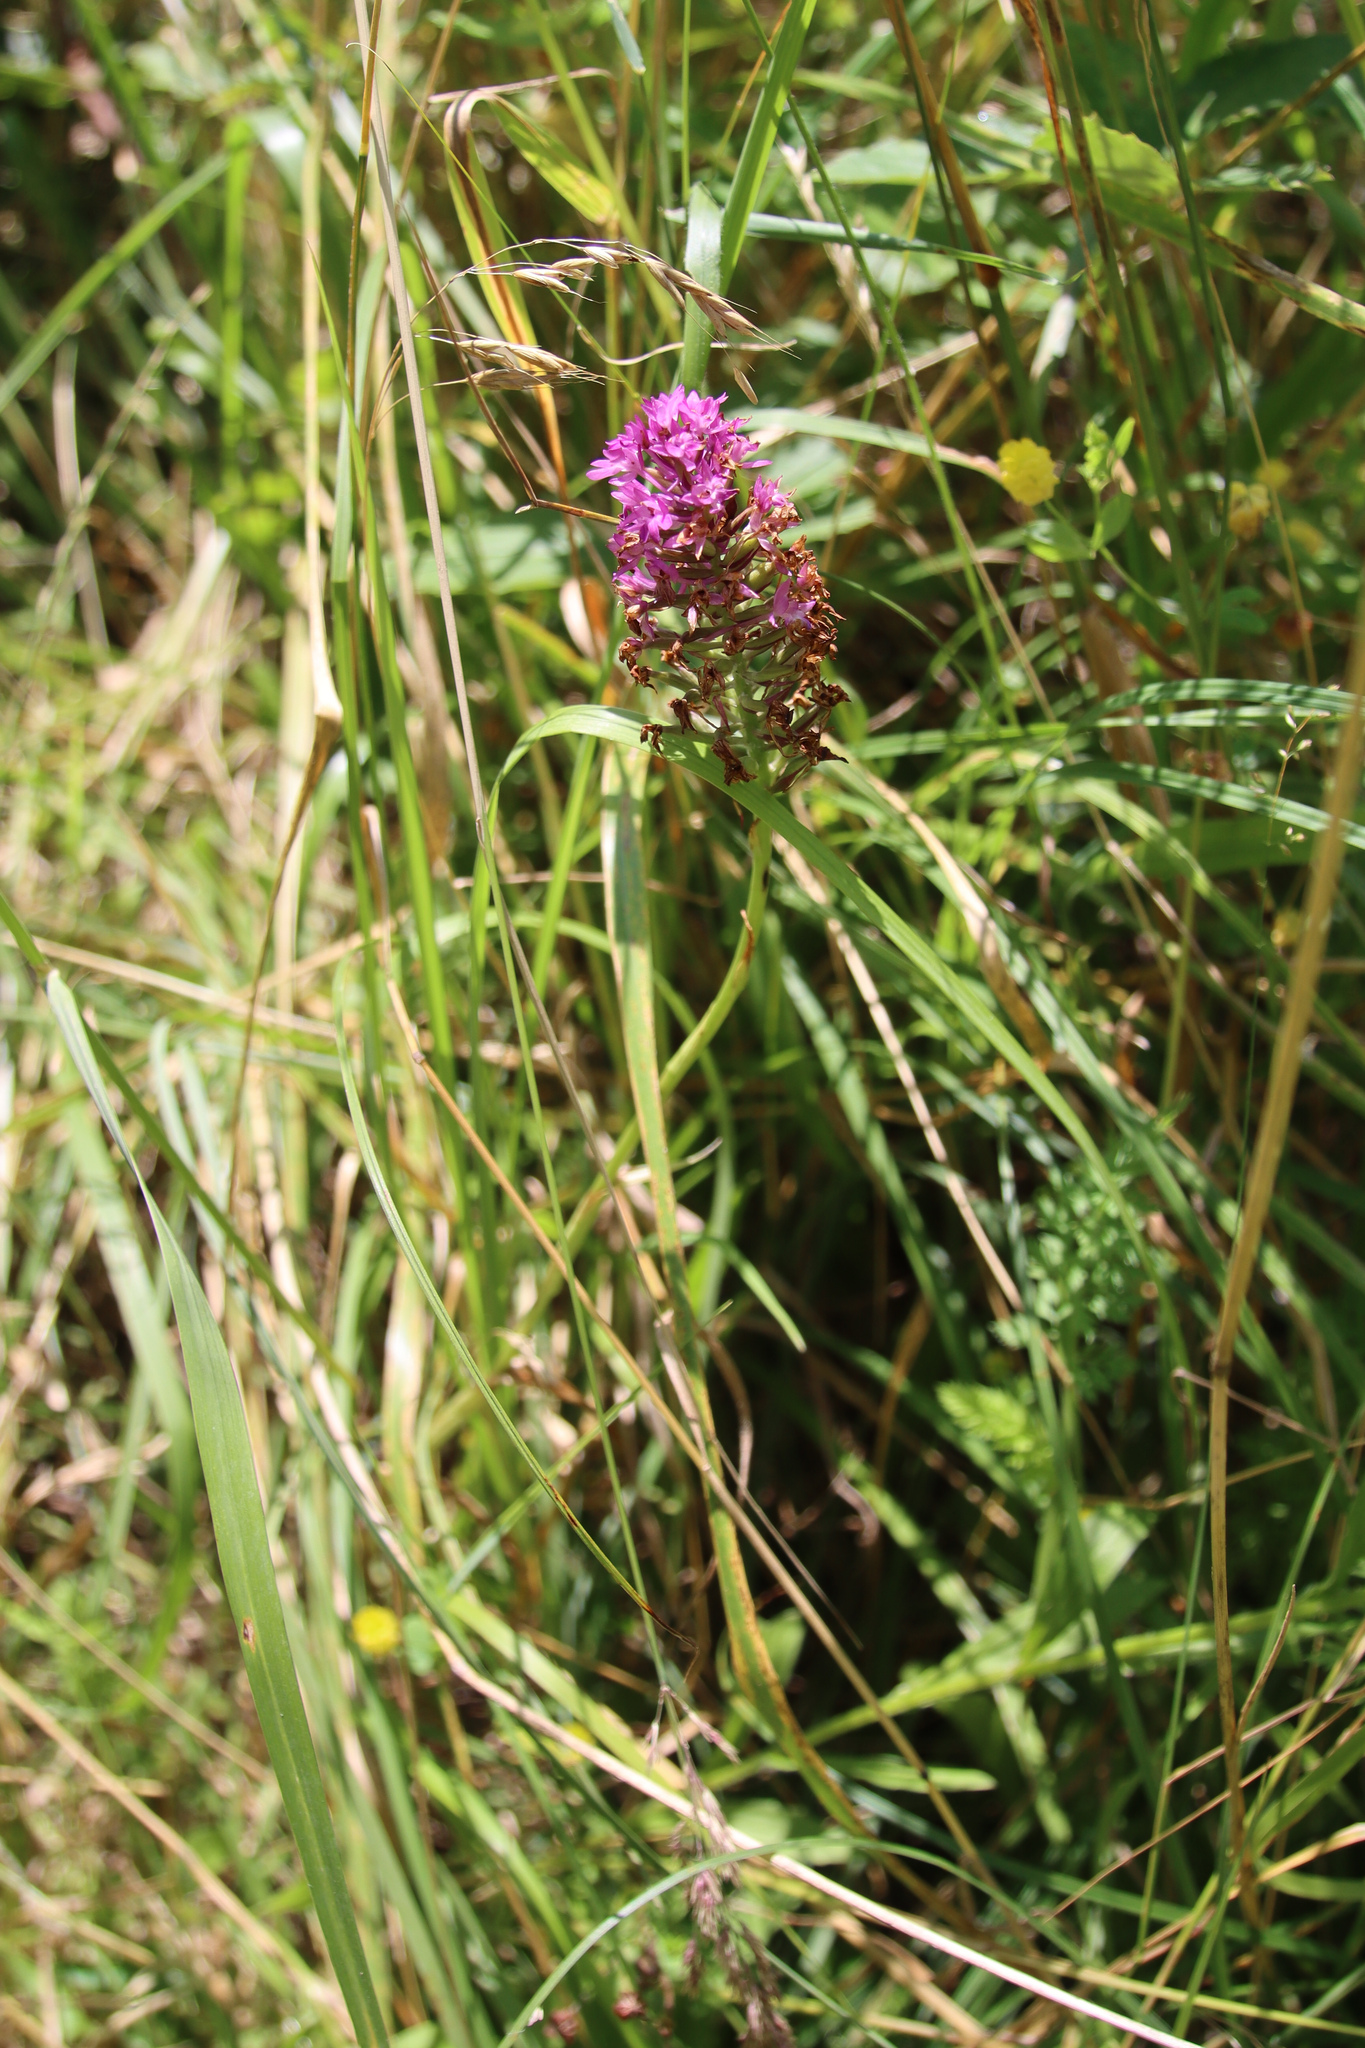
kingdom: Plantae
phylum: Tracheophyta
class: Liliopsida
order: Asparagales
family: Orchidaceae
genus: Anacamptis
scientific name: Anacamptis pyramidalis
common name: Pyramidal orchid
